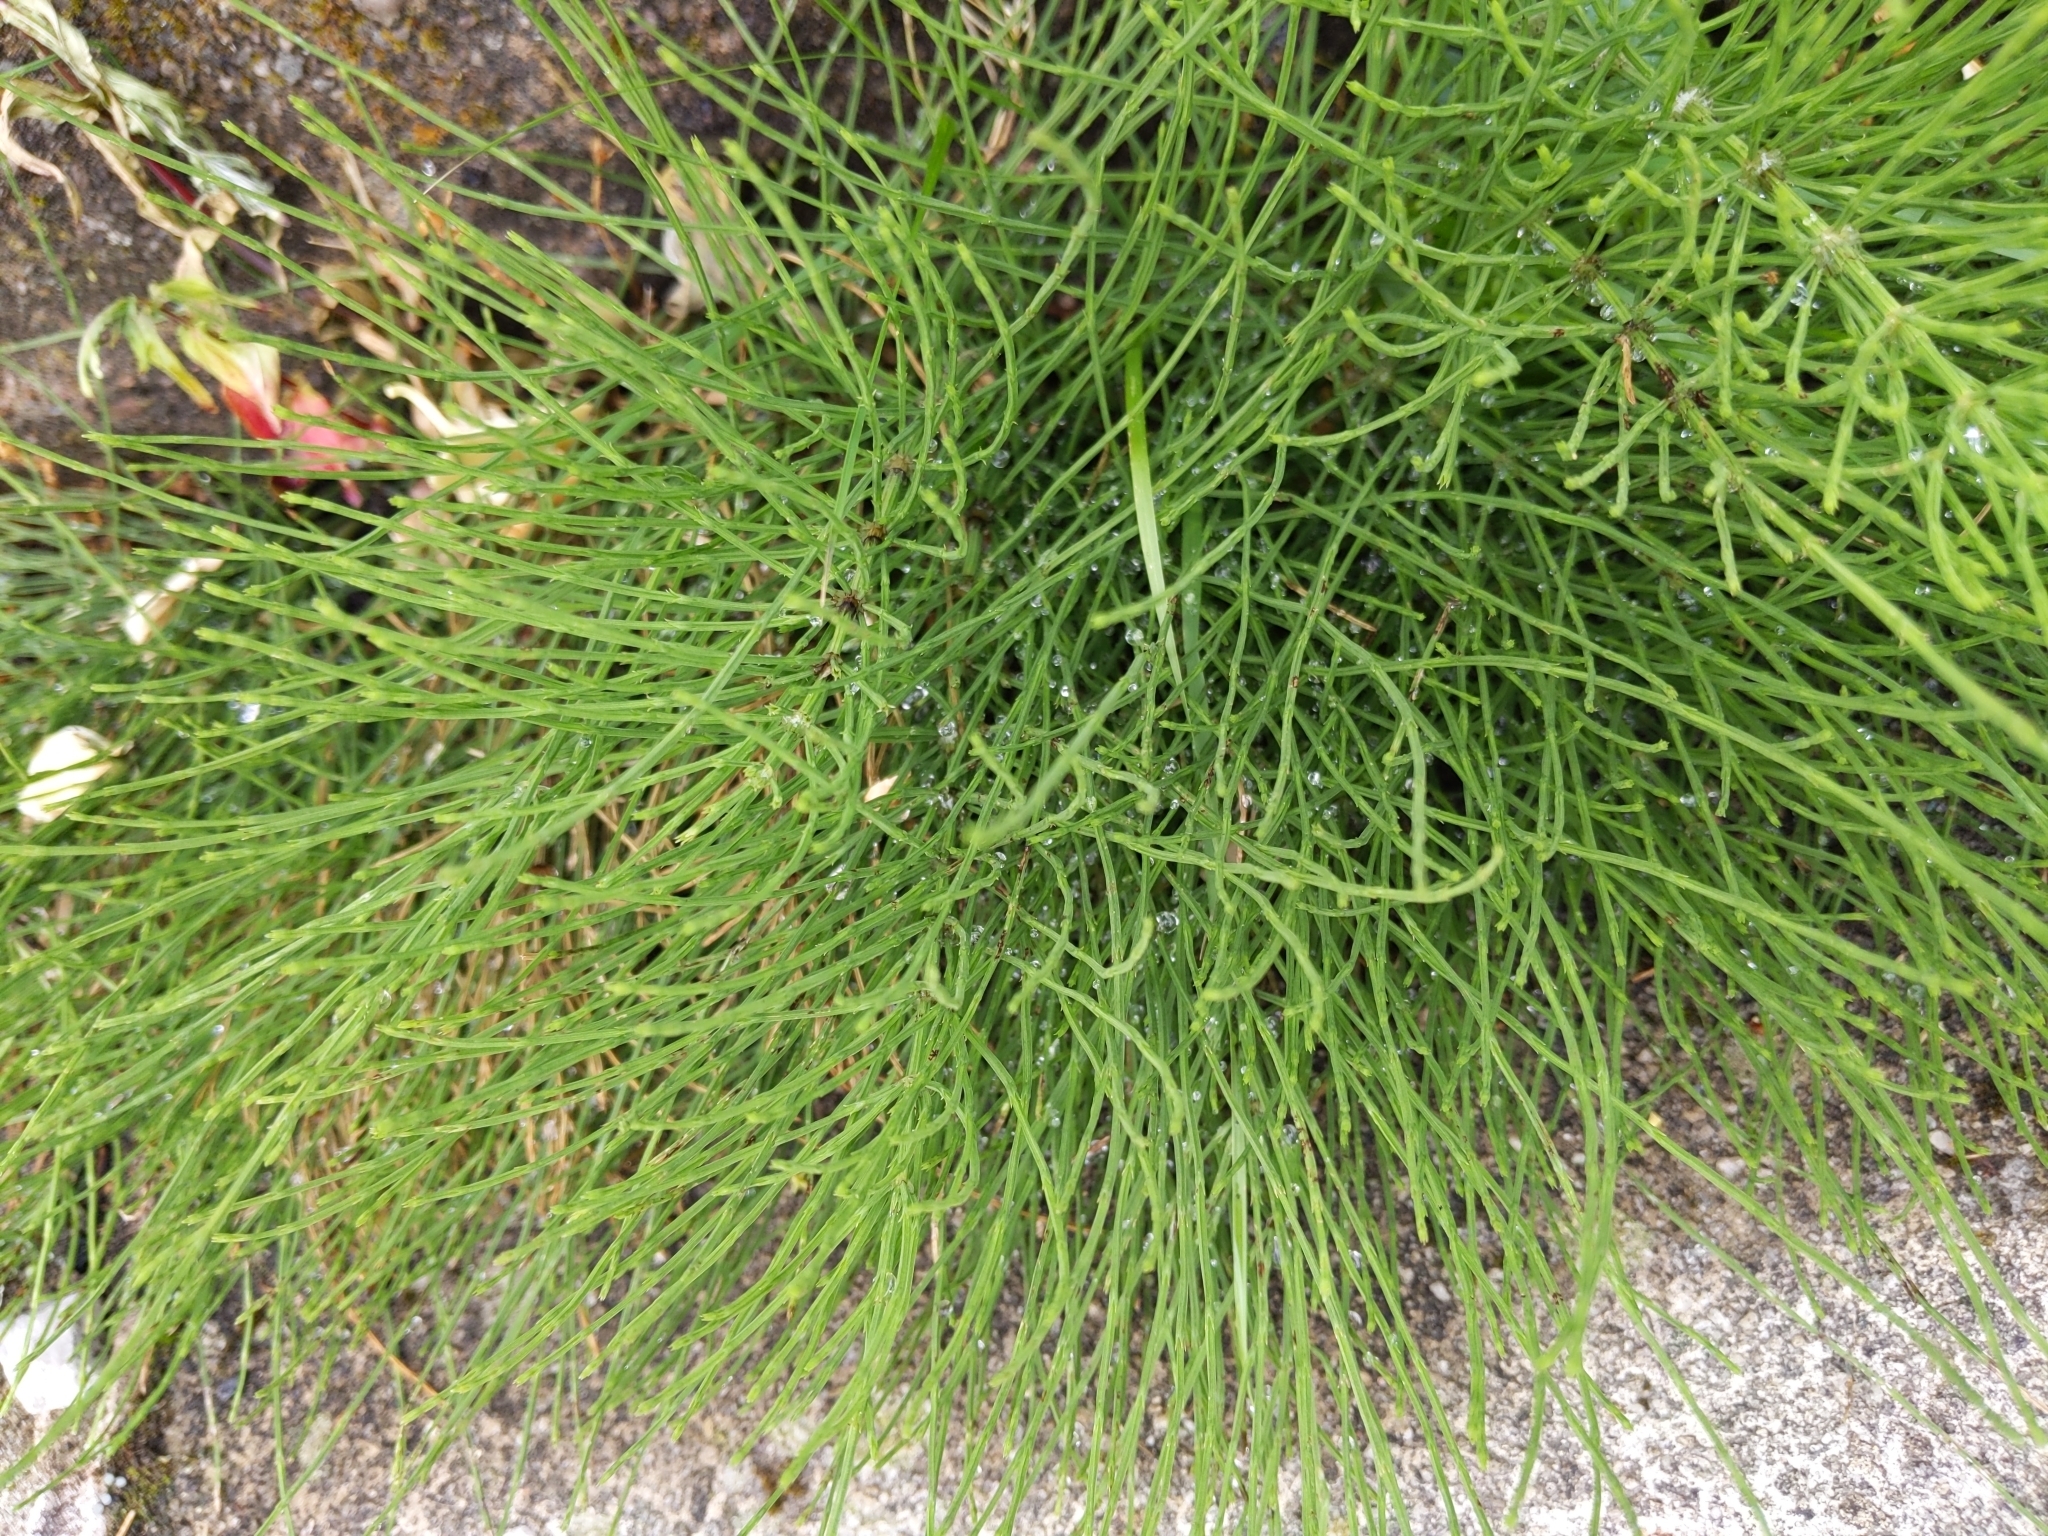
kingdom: Plantae
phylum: Tracheophyta
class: Polypodiopsida
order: Equisetales
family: Equisetaceae
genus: Equisetum
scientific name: Equisetum arvense
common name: Field horsetail
